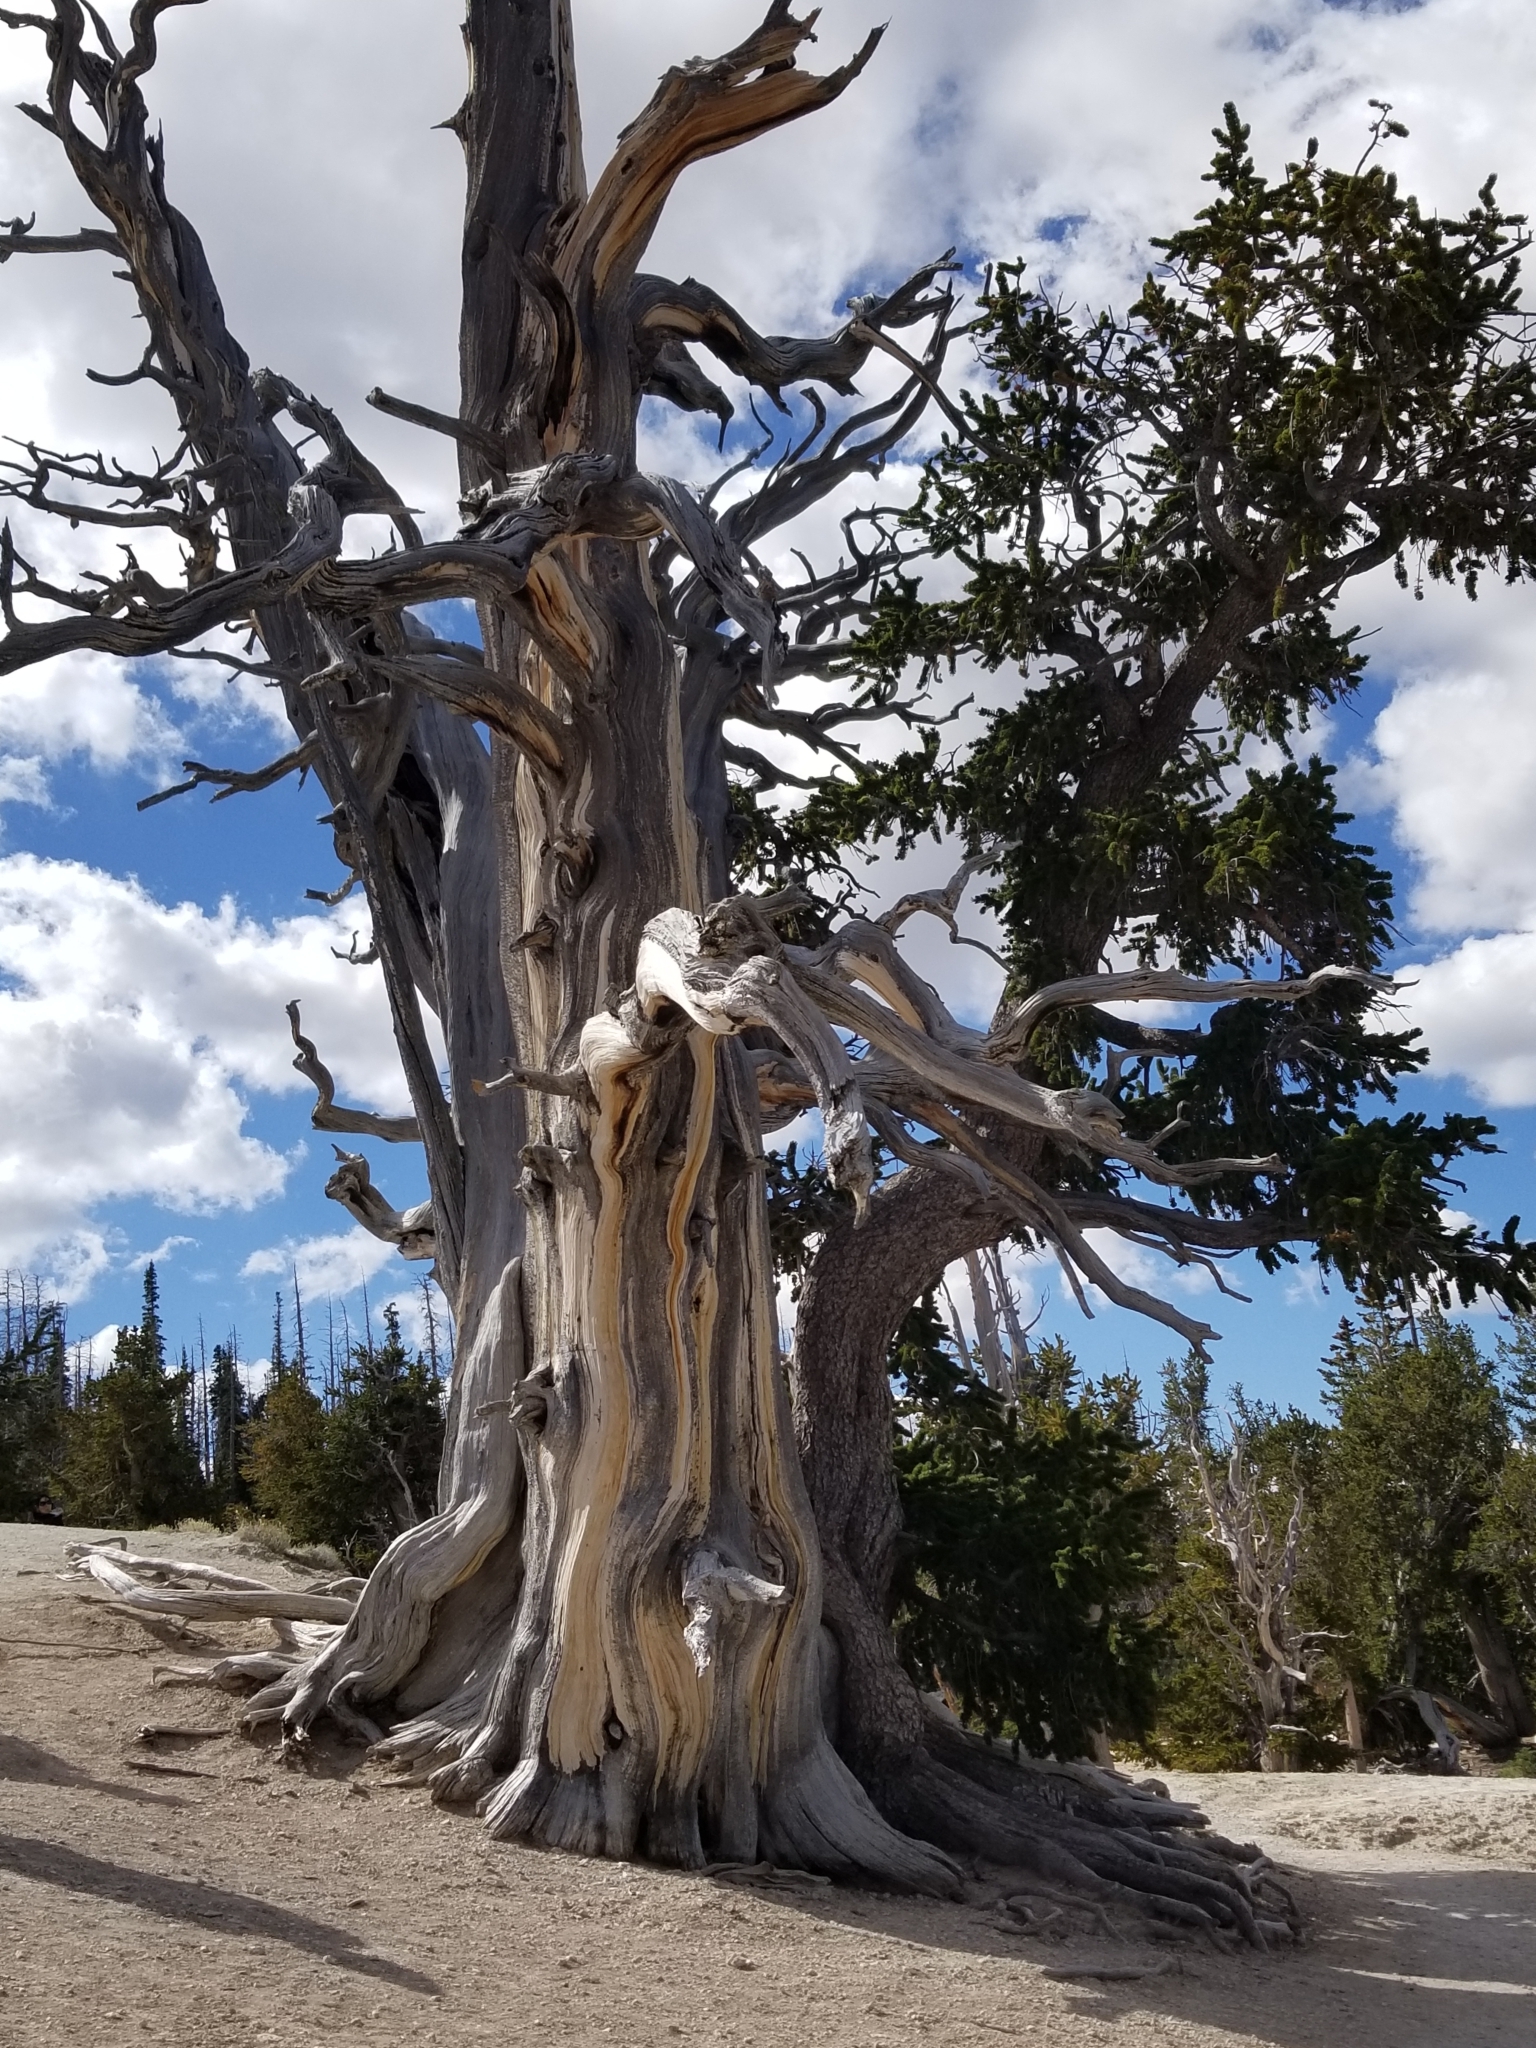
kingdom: Plantae
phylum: Tracheophyta
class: Pinopsida
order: Pinales
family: Pinaceae
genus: Pinus
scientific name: Pinus longaeva
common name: Intermountain bristlecone pine
